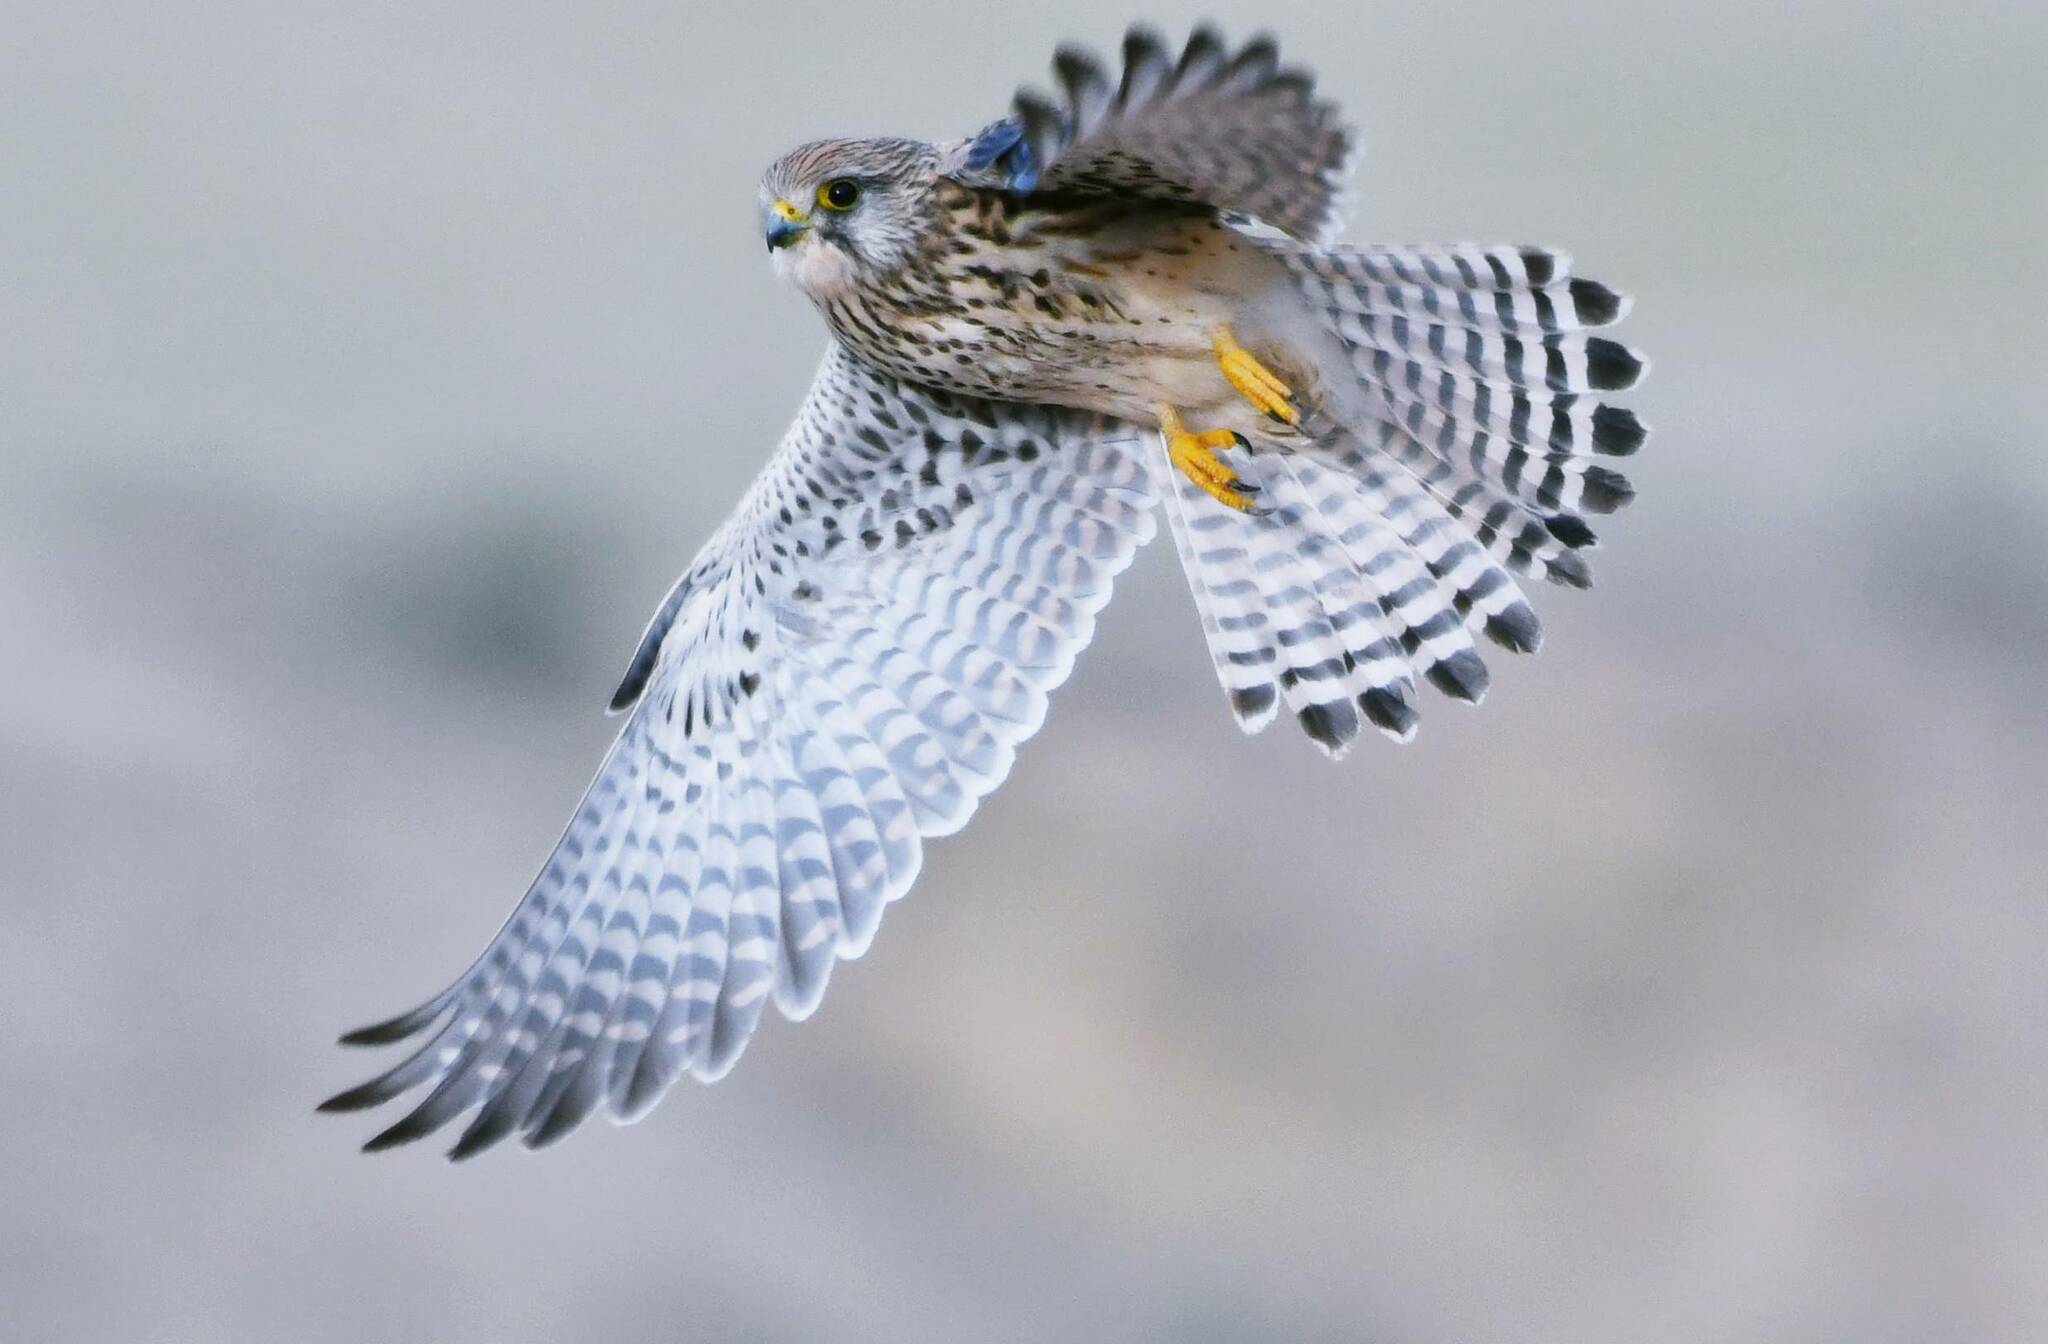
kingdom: Animalia
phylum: Chordata
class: Aves
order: Falconiformes
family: Falconidae
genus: Falco
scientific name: Falco tinnunculus
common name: Common kestrel
